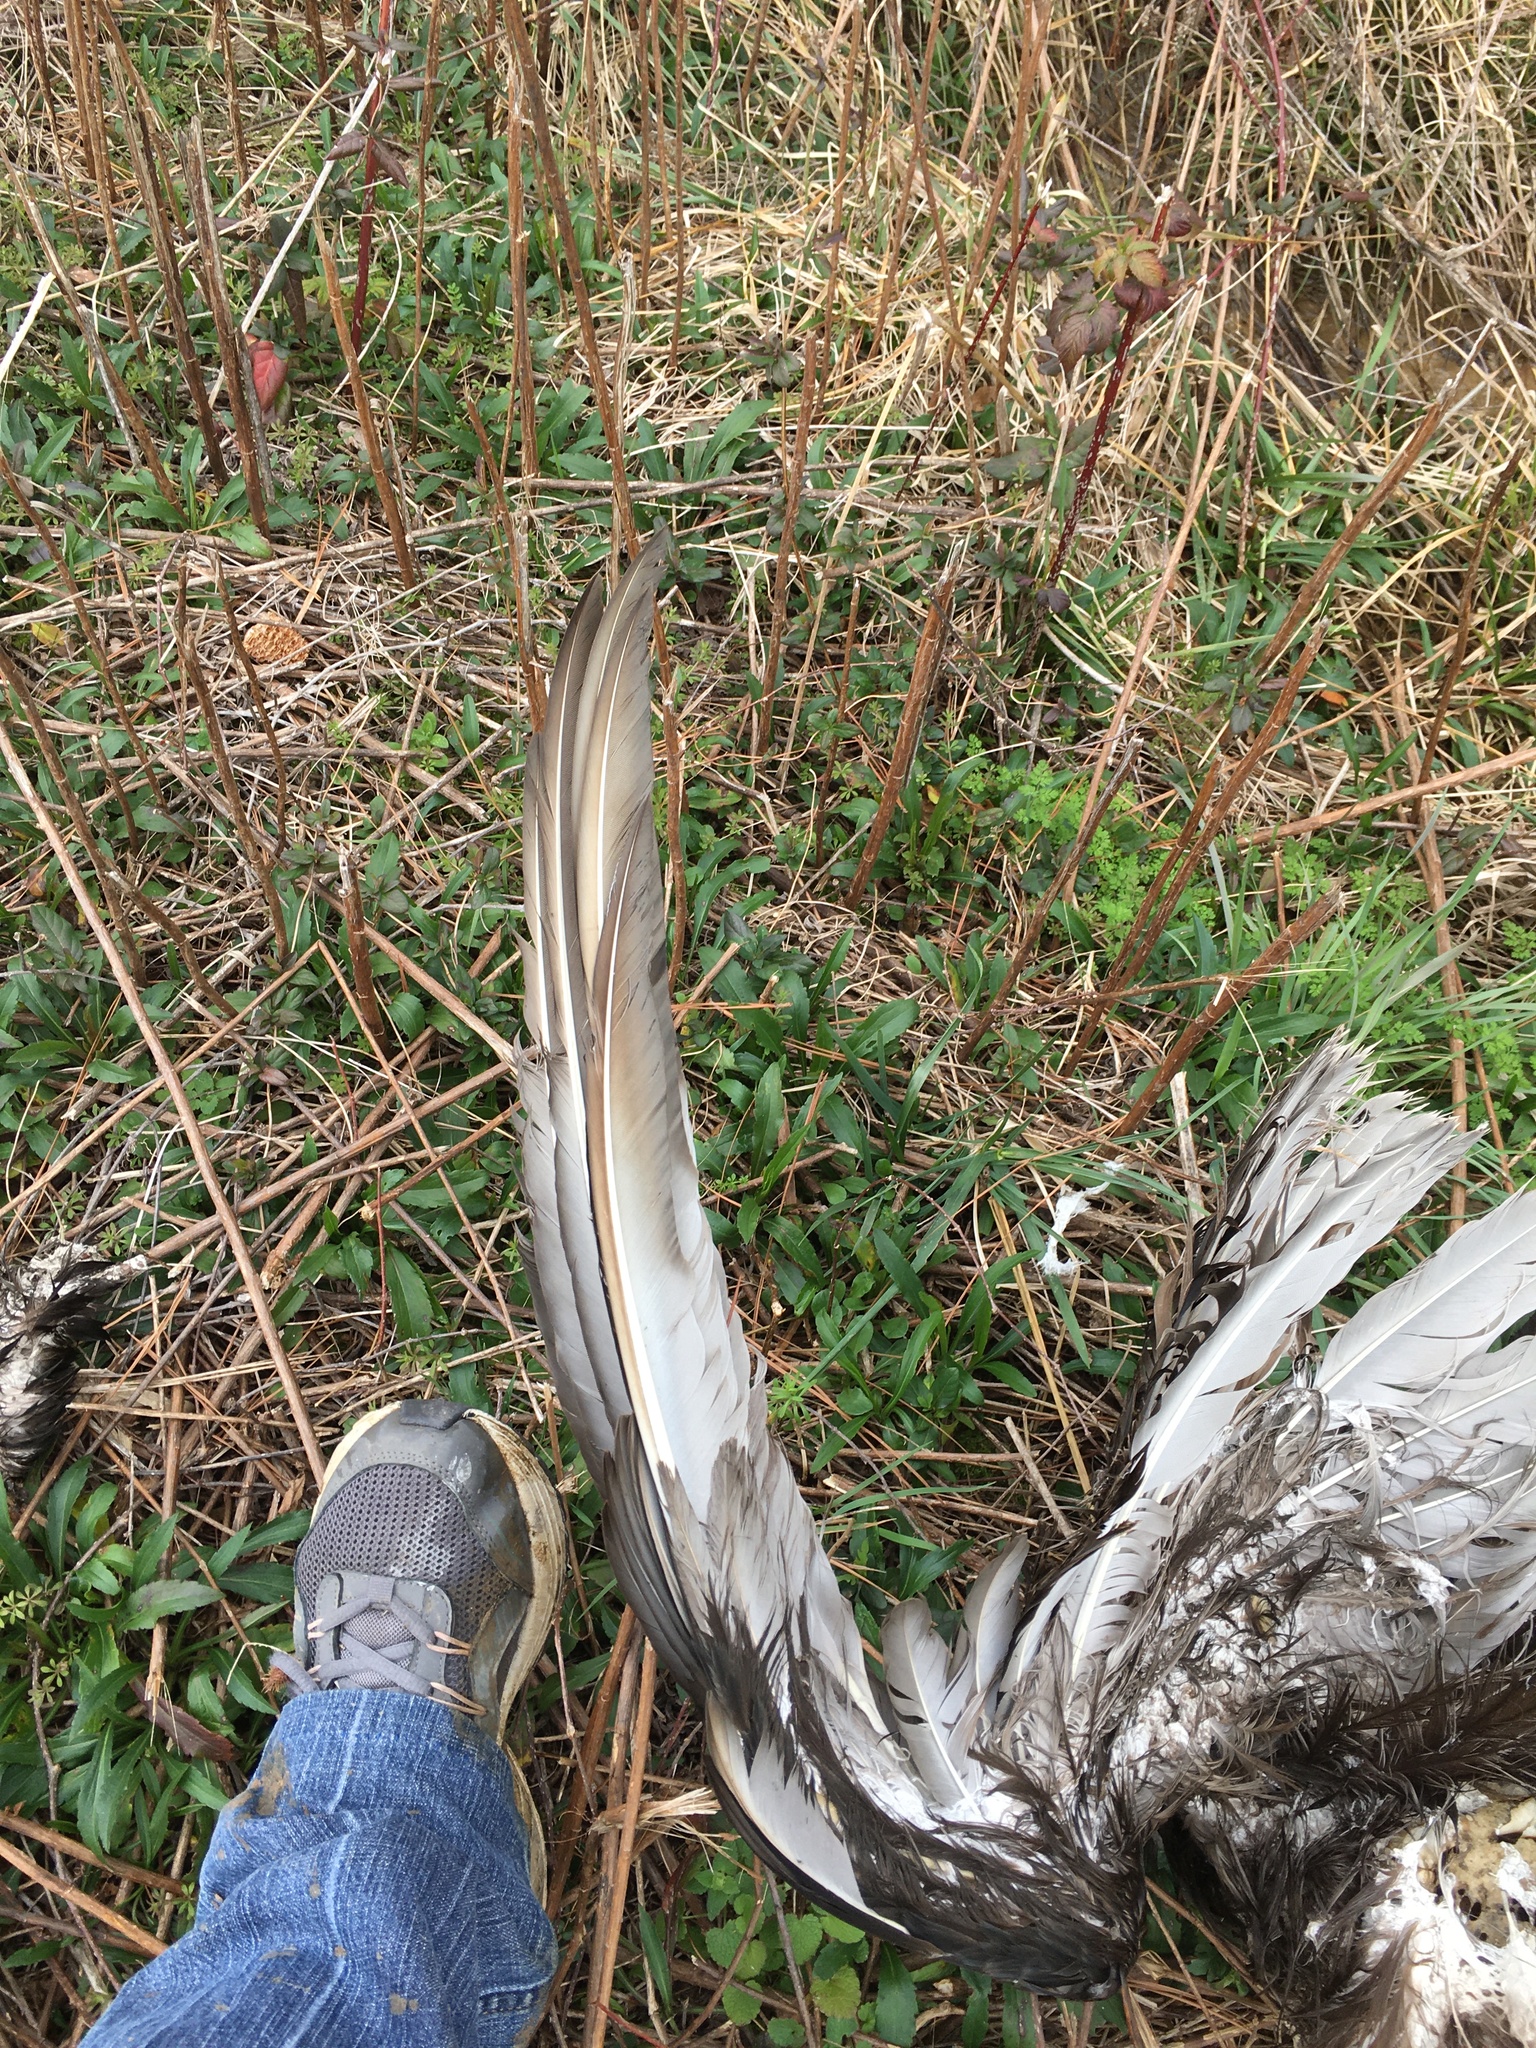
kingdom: Animalia
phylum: Chordata
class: Aves
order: Accipitriformes
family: Cathartidae
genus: Cathartes
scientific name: Cathartes aura
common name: Turkey vulture
